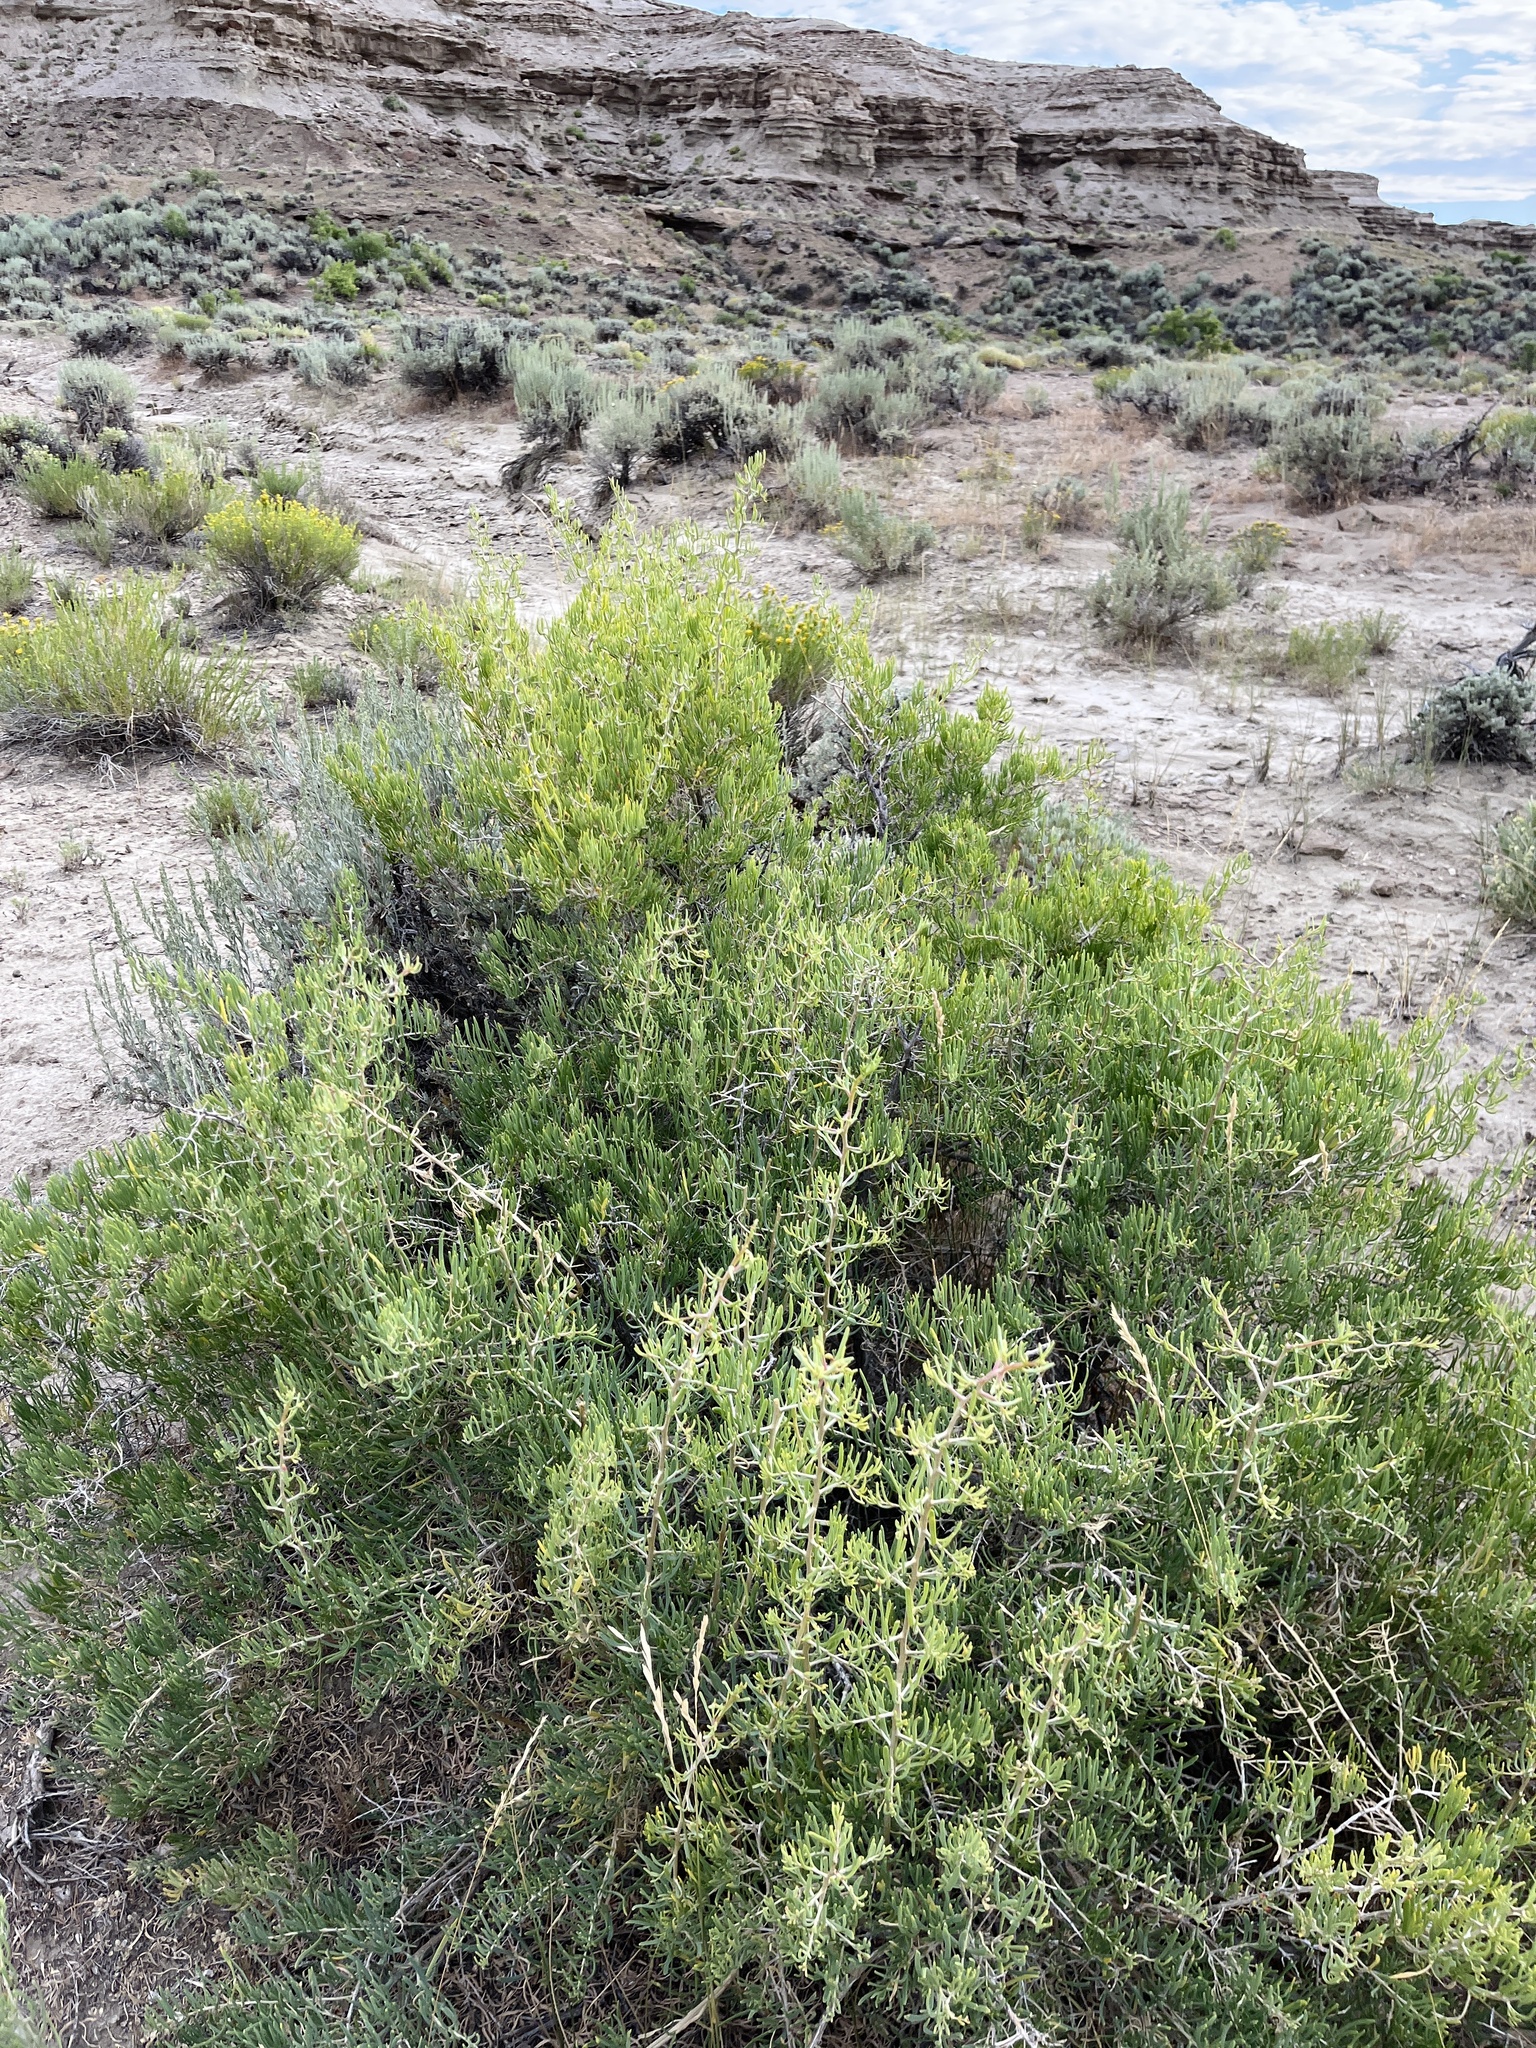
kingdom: Plantae
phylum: Tracheophyta
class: Magnoliopsida
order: Caryophyllales
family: Sarcobataceae
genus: Sarcobatus
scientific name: Sarcobatus vermiculatus
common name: Greasewood
